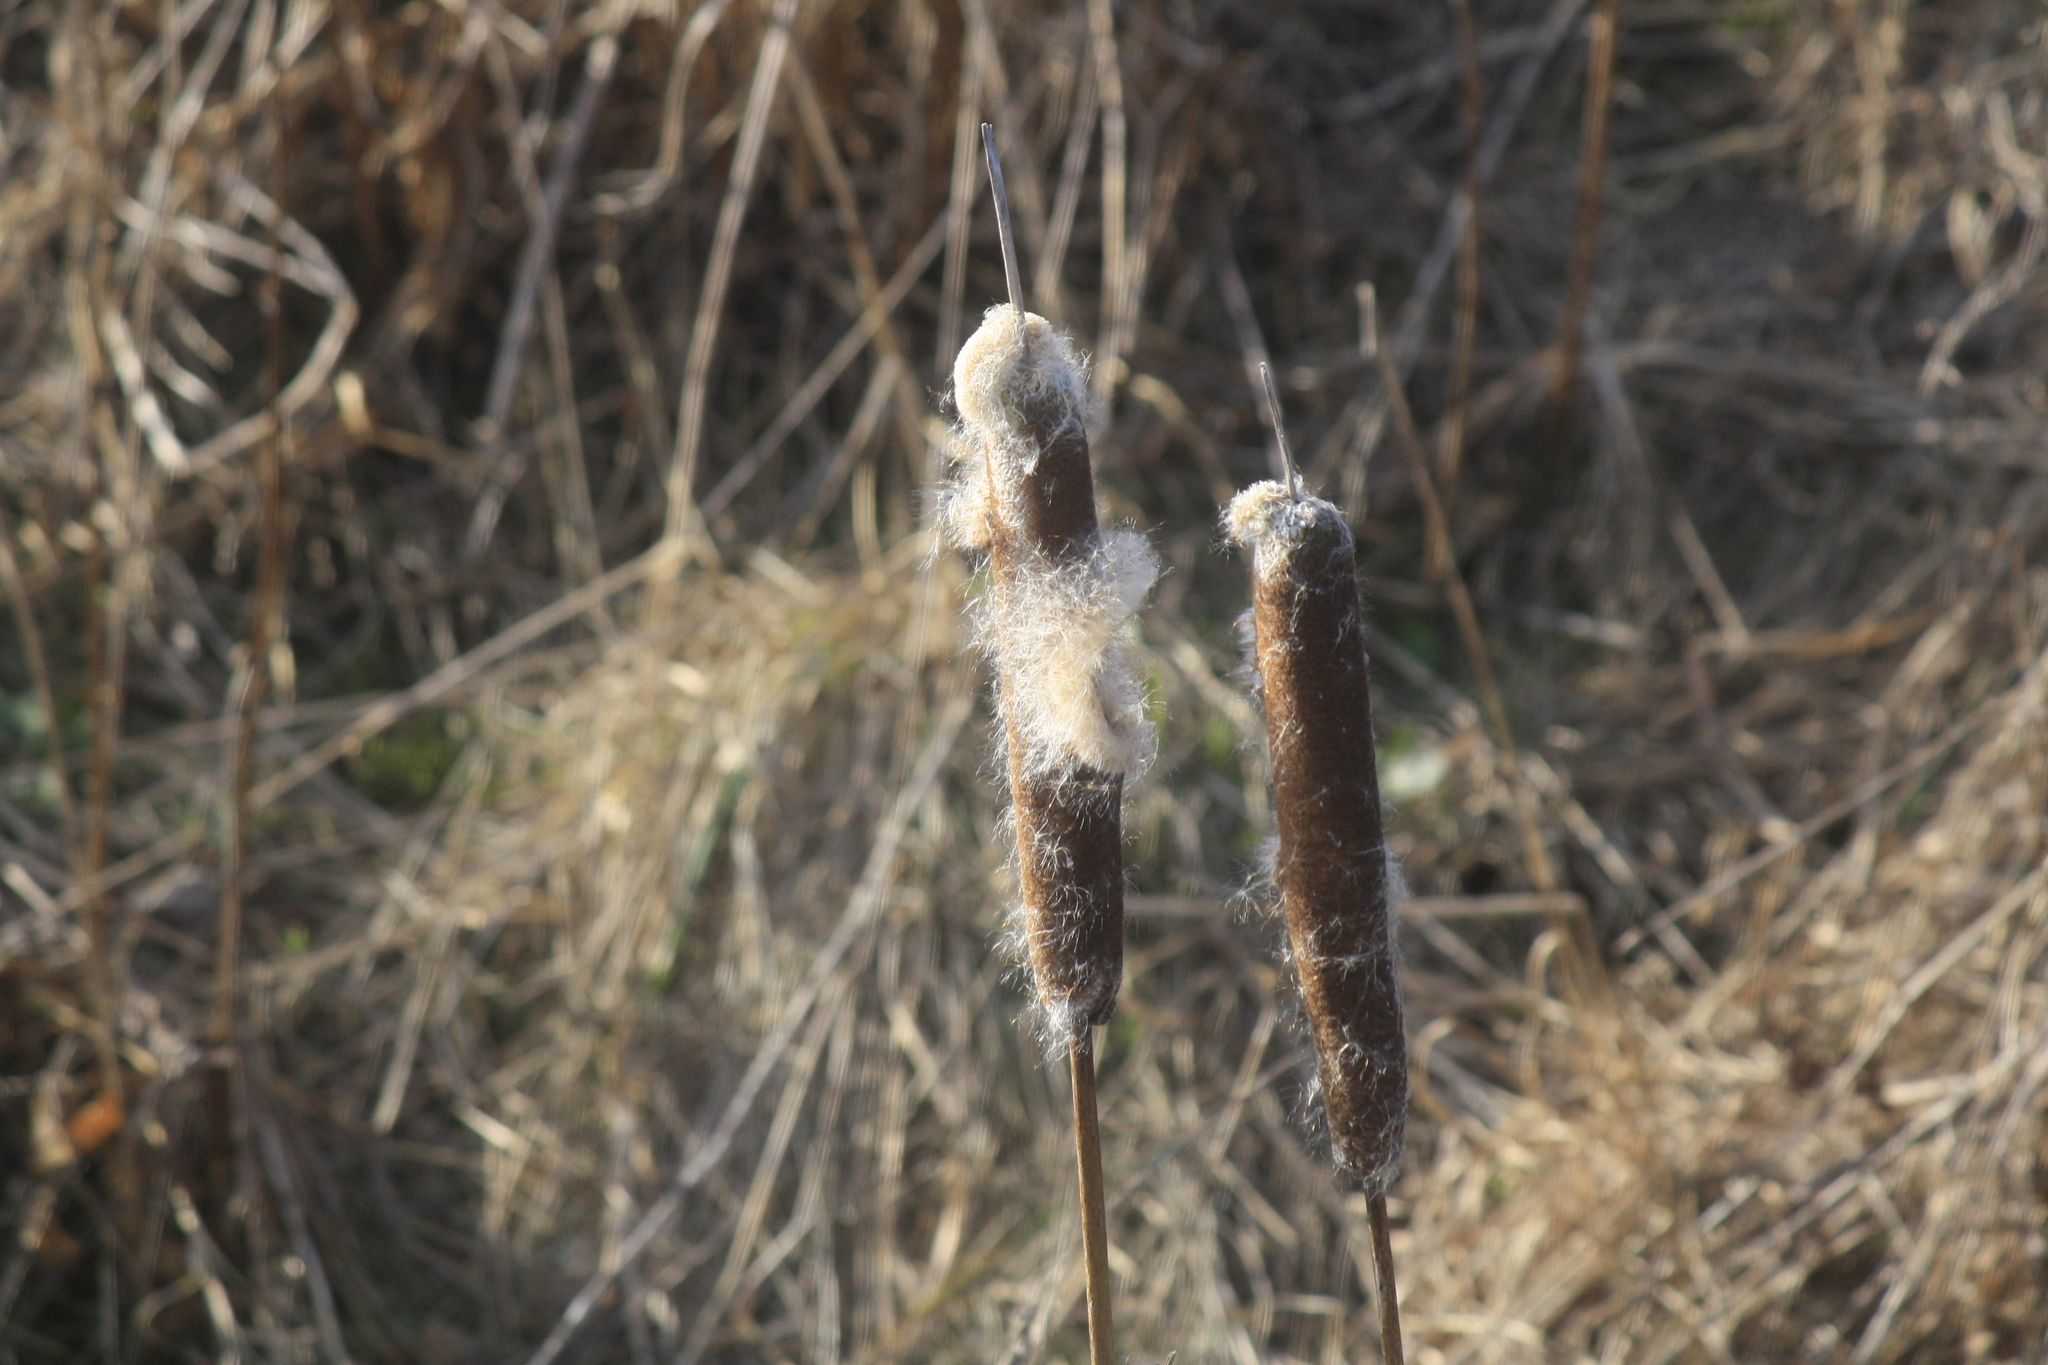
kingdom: Plantae
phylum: Tracheophyta
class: Liliopsida
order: Poales
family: Typhaceae
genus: Typha
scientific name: Typha latifolia
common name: Broadleaf cattail
